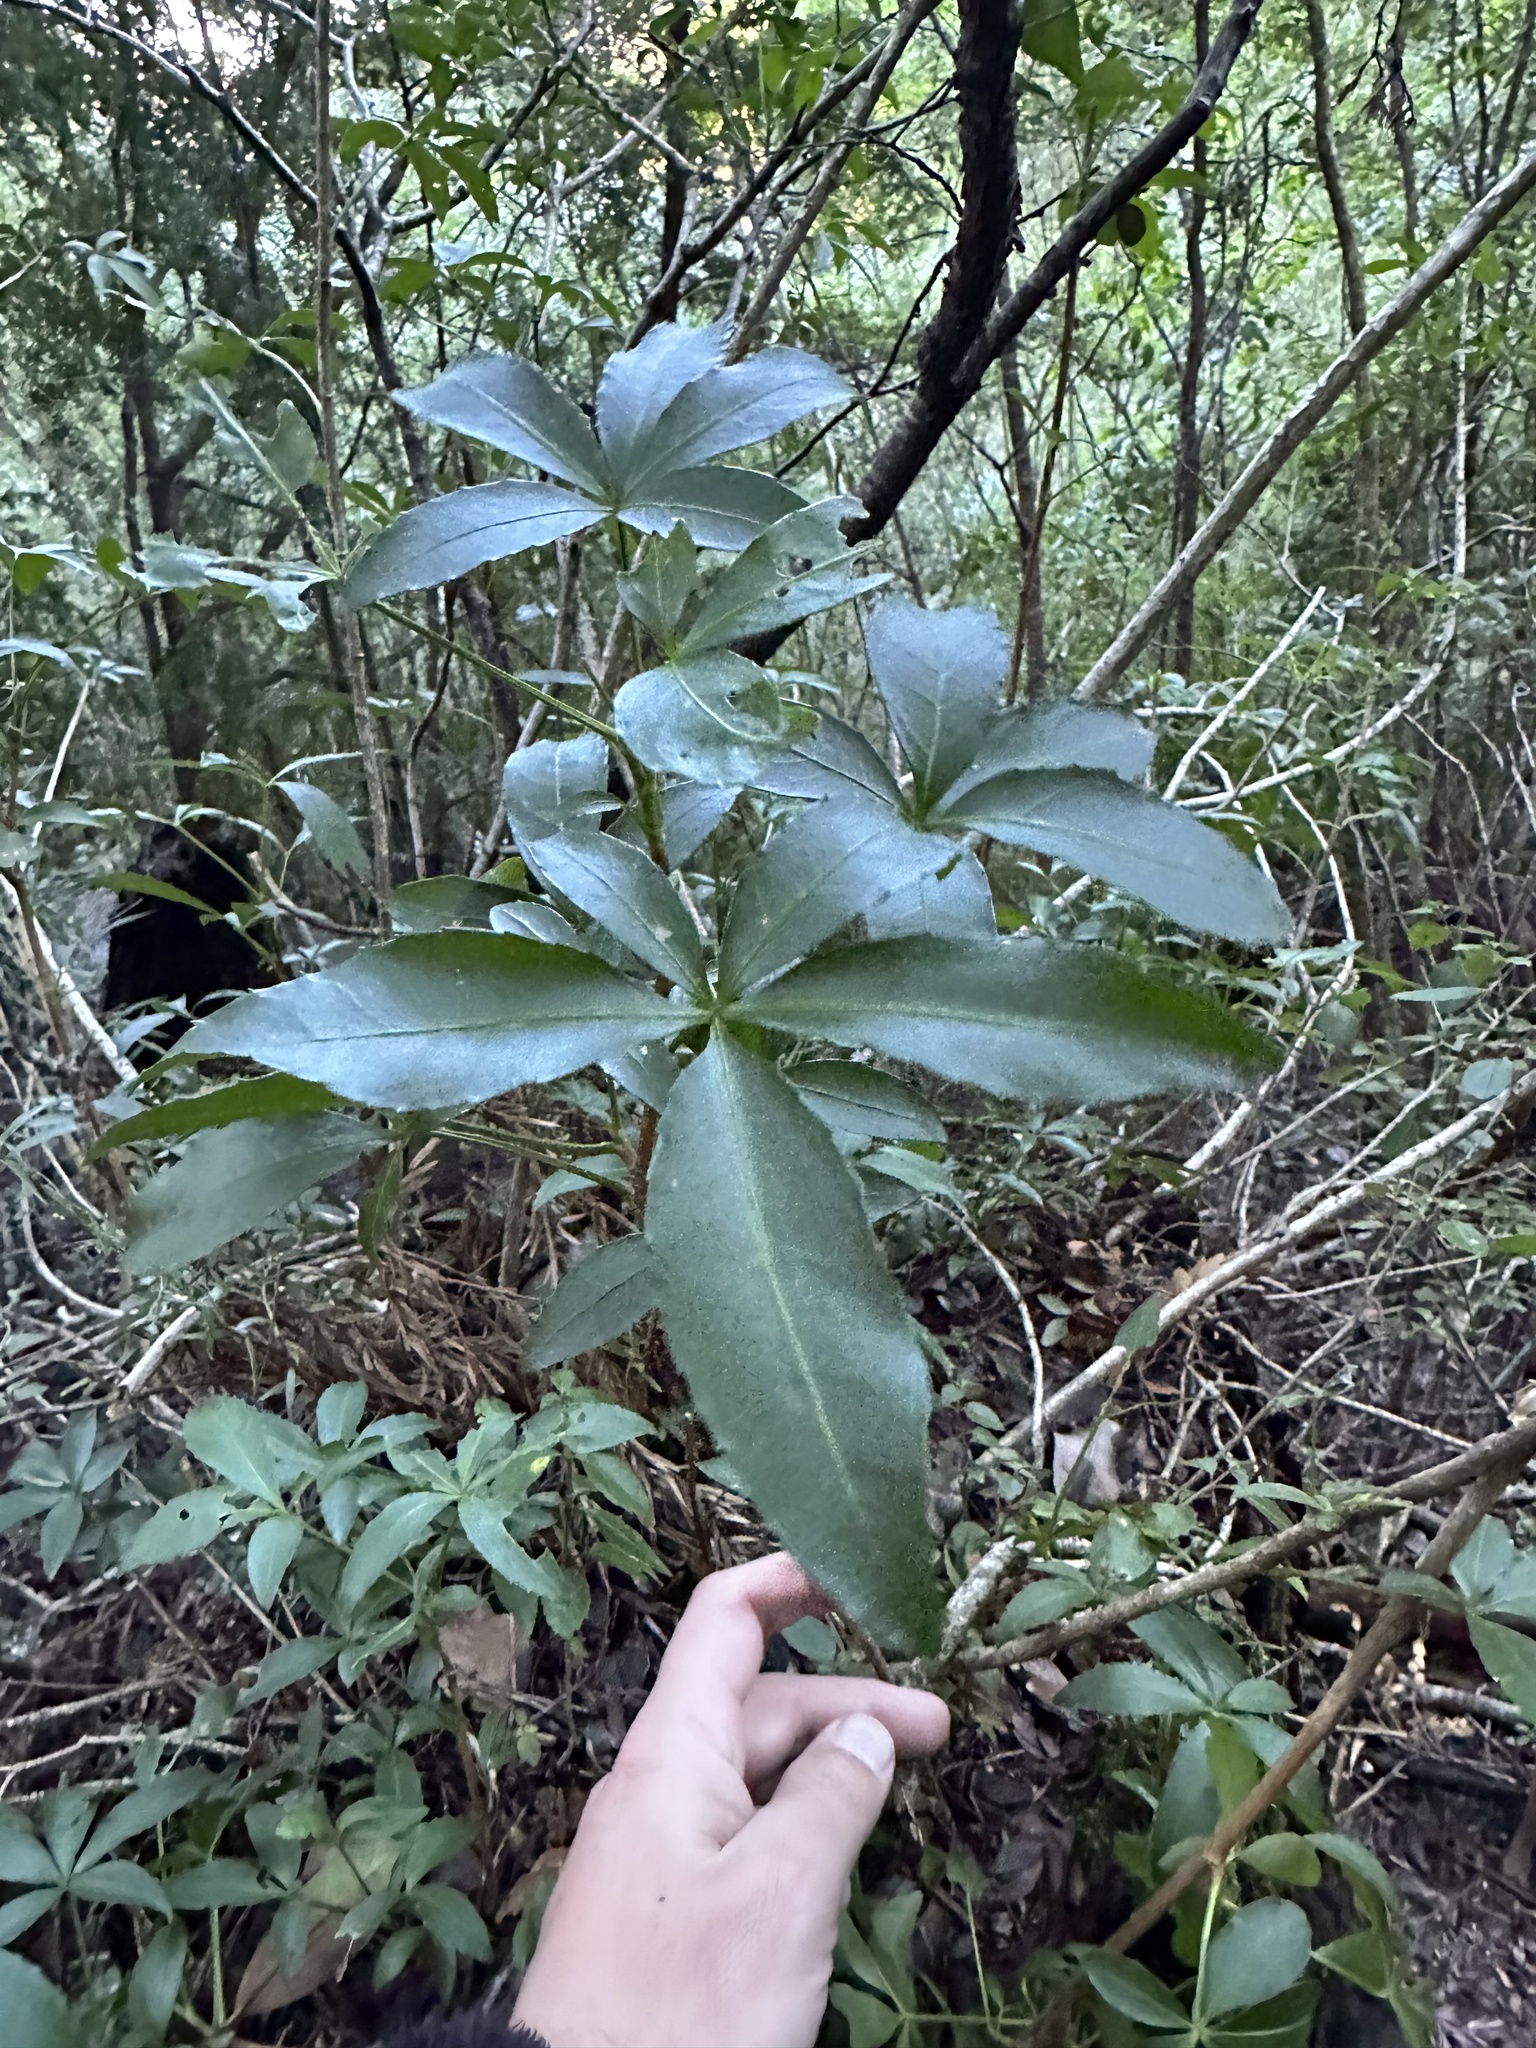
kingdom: Plantae
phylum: Tracheophyta
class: Magnoliopsida
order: Apiales
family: Araliaceae
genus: Raukaua
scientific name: Raukaua laetevirens
